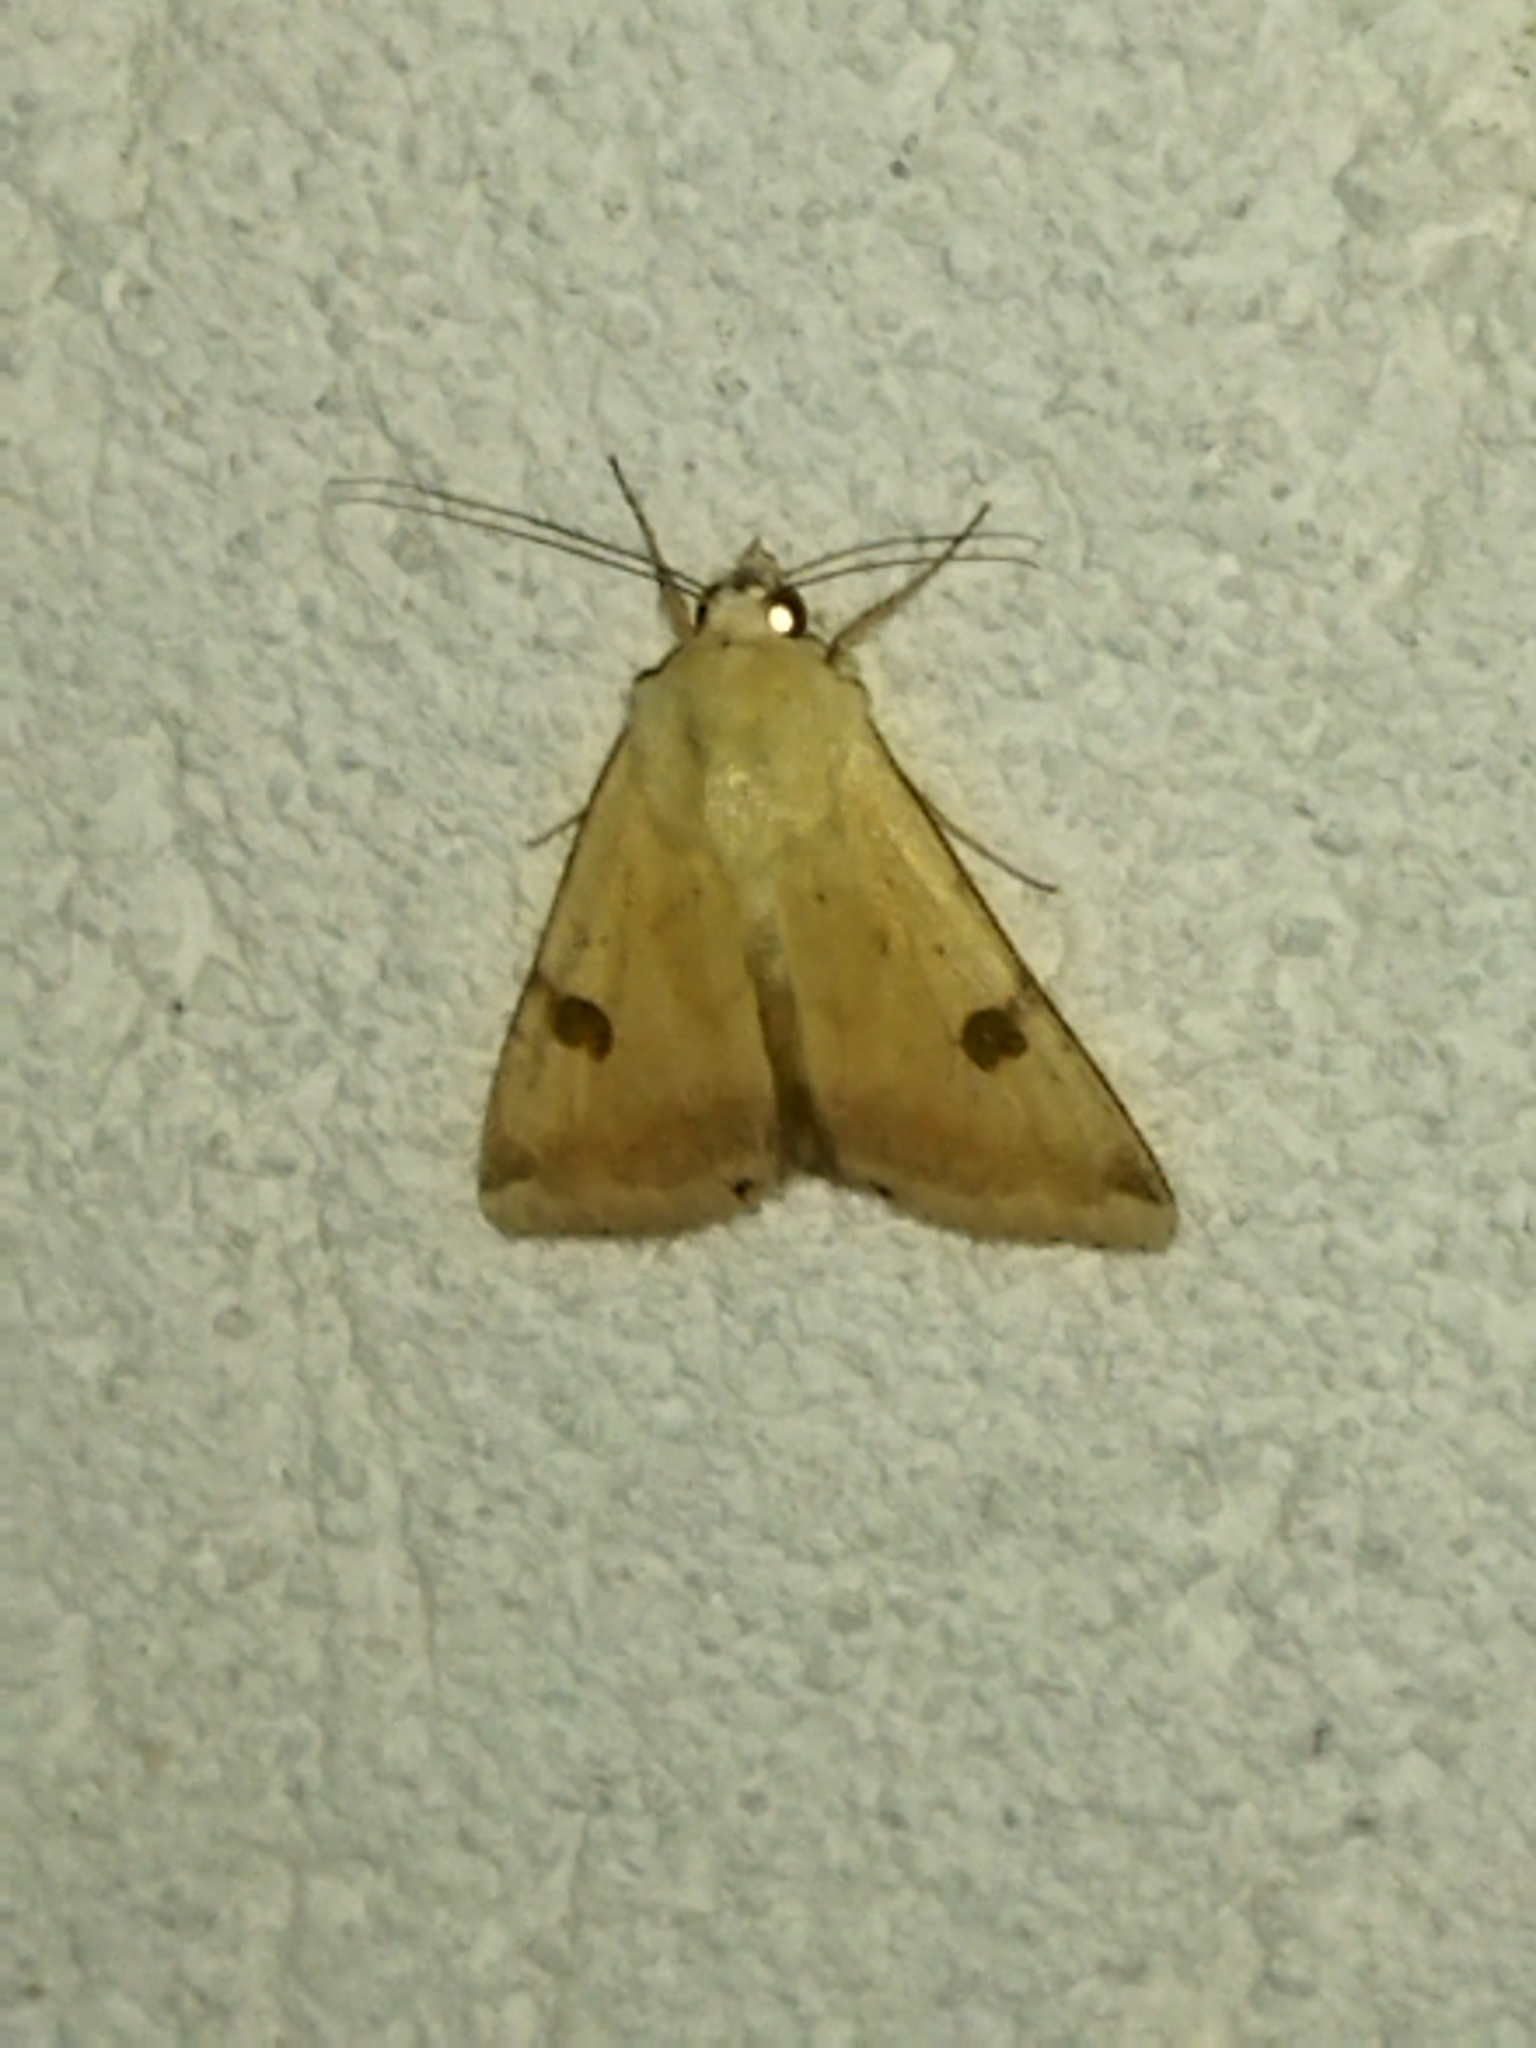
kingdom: Animalia
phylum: Arthropoda
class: Insecta
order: Lepidoptera
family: Noctuidae
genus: Heliothis
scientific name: Heliothis peltigera
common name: Bordered straw
